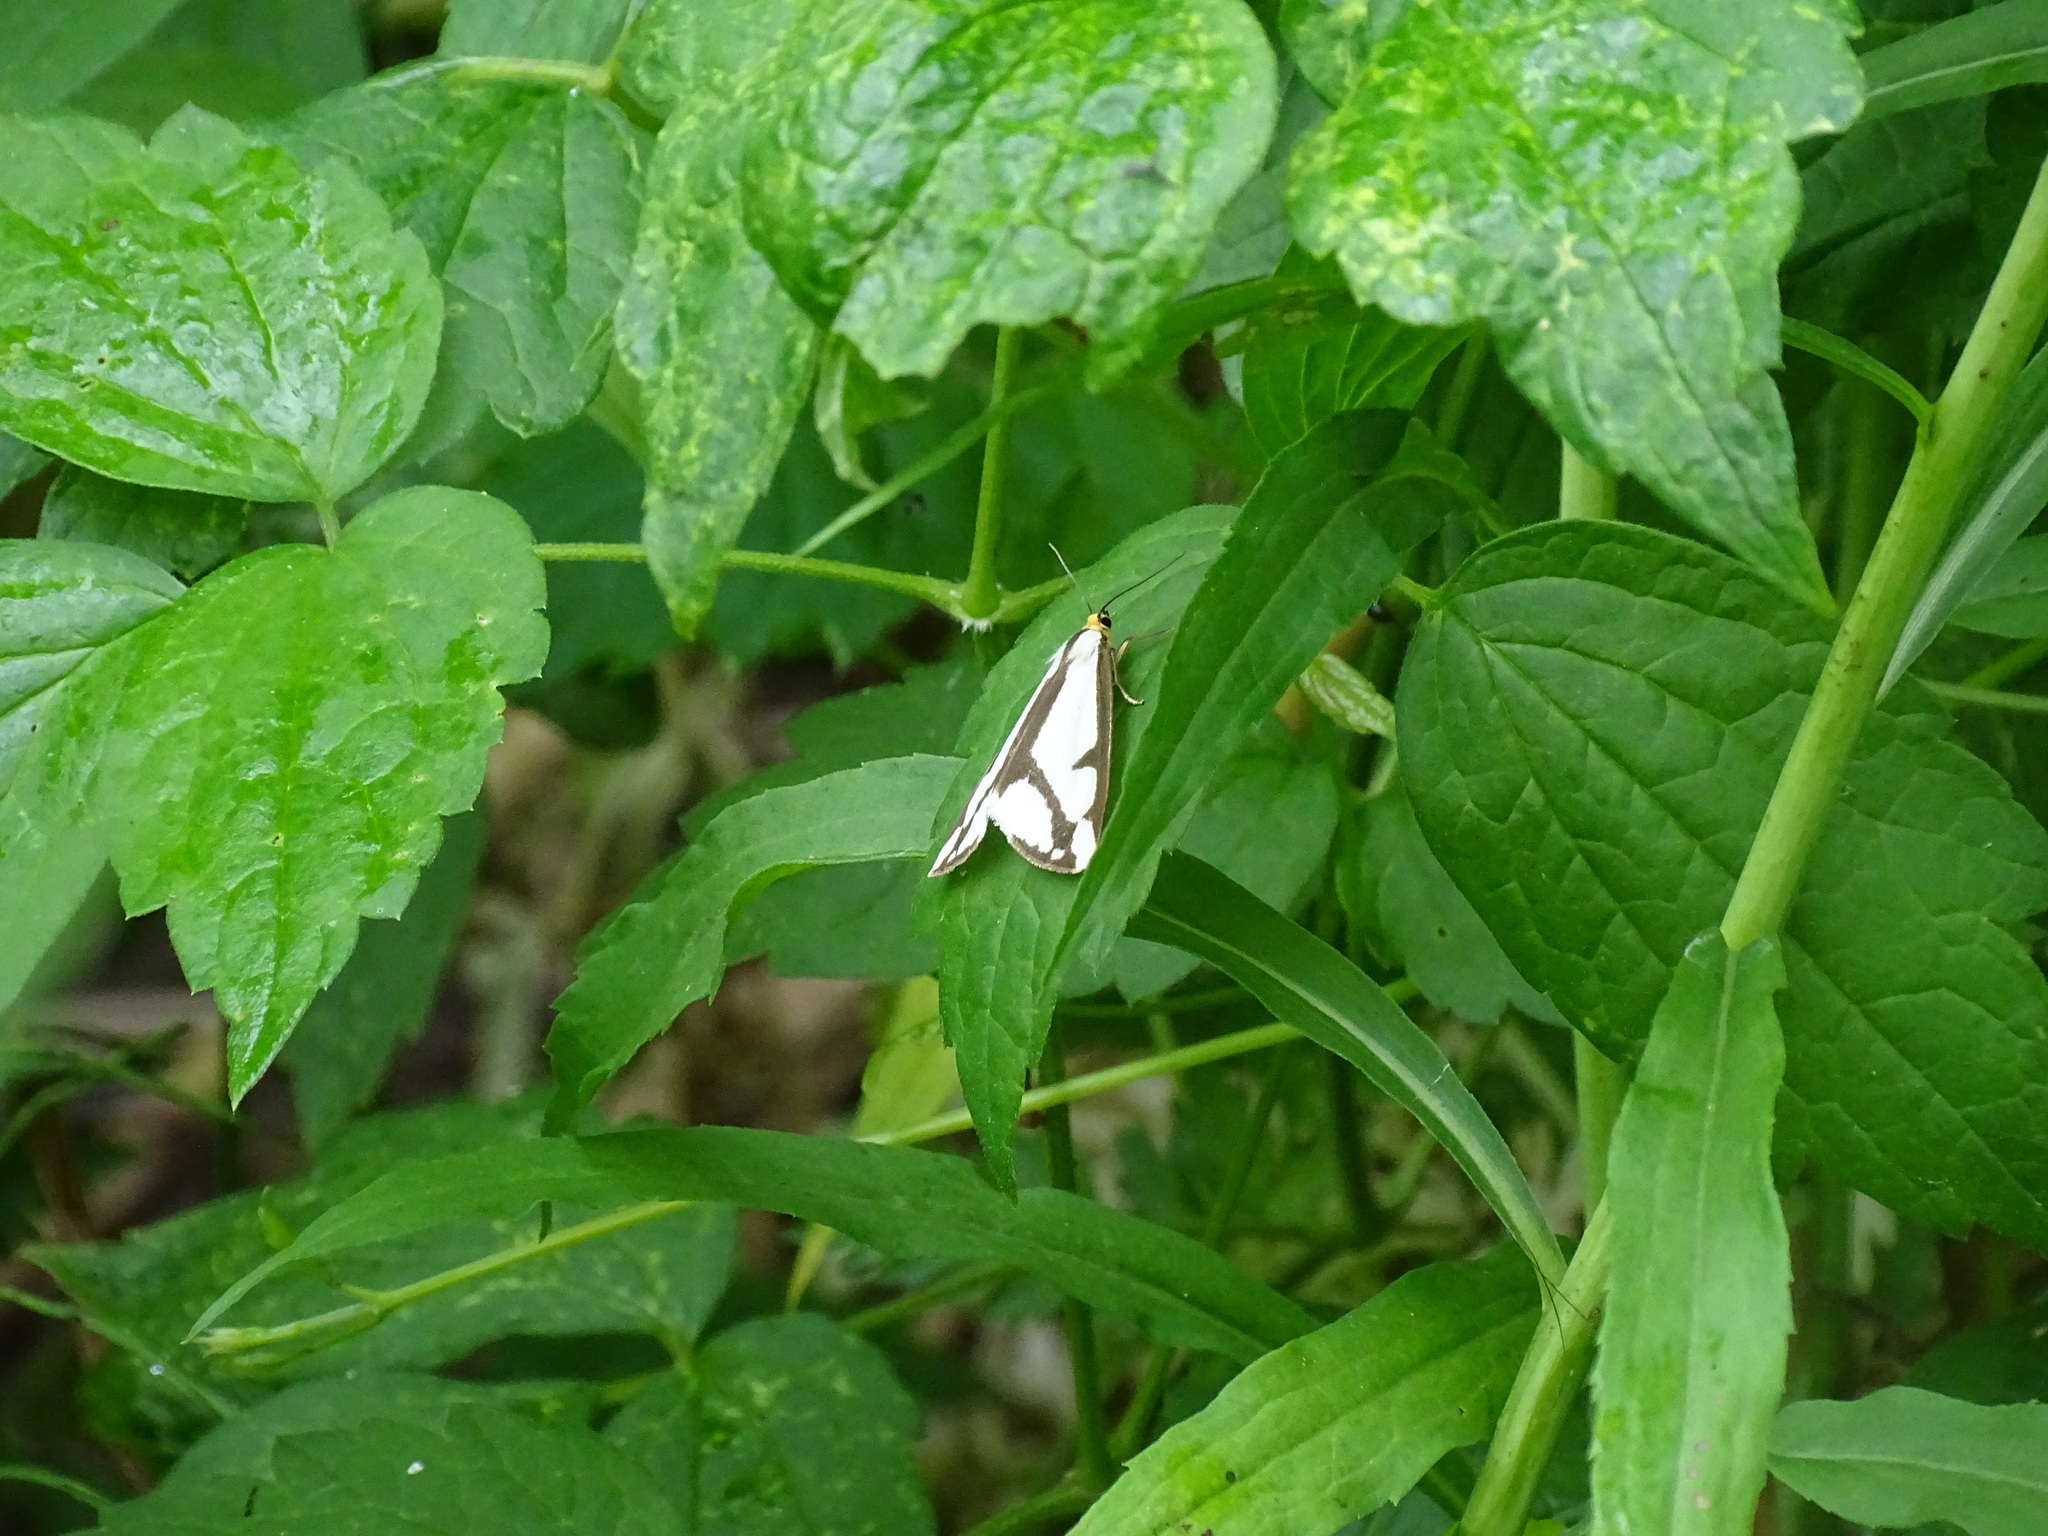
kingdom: Animalia
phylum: Arthropoda
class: Insecta
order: Lepidoptera
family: Erebidae
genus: Haploa
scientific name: Haploa lecontei
